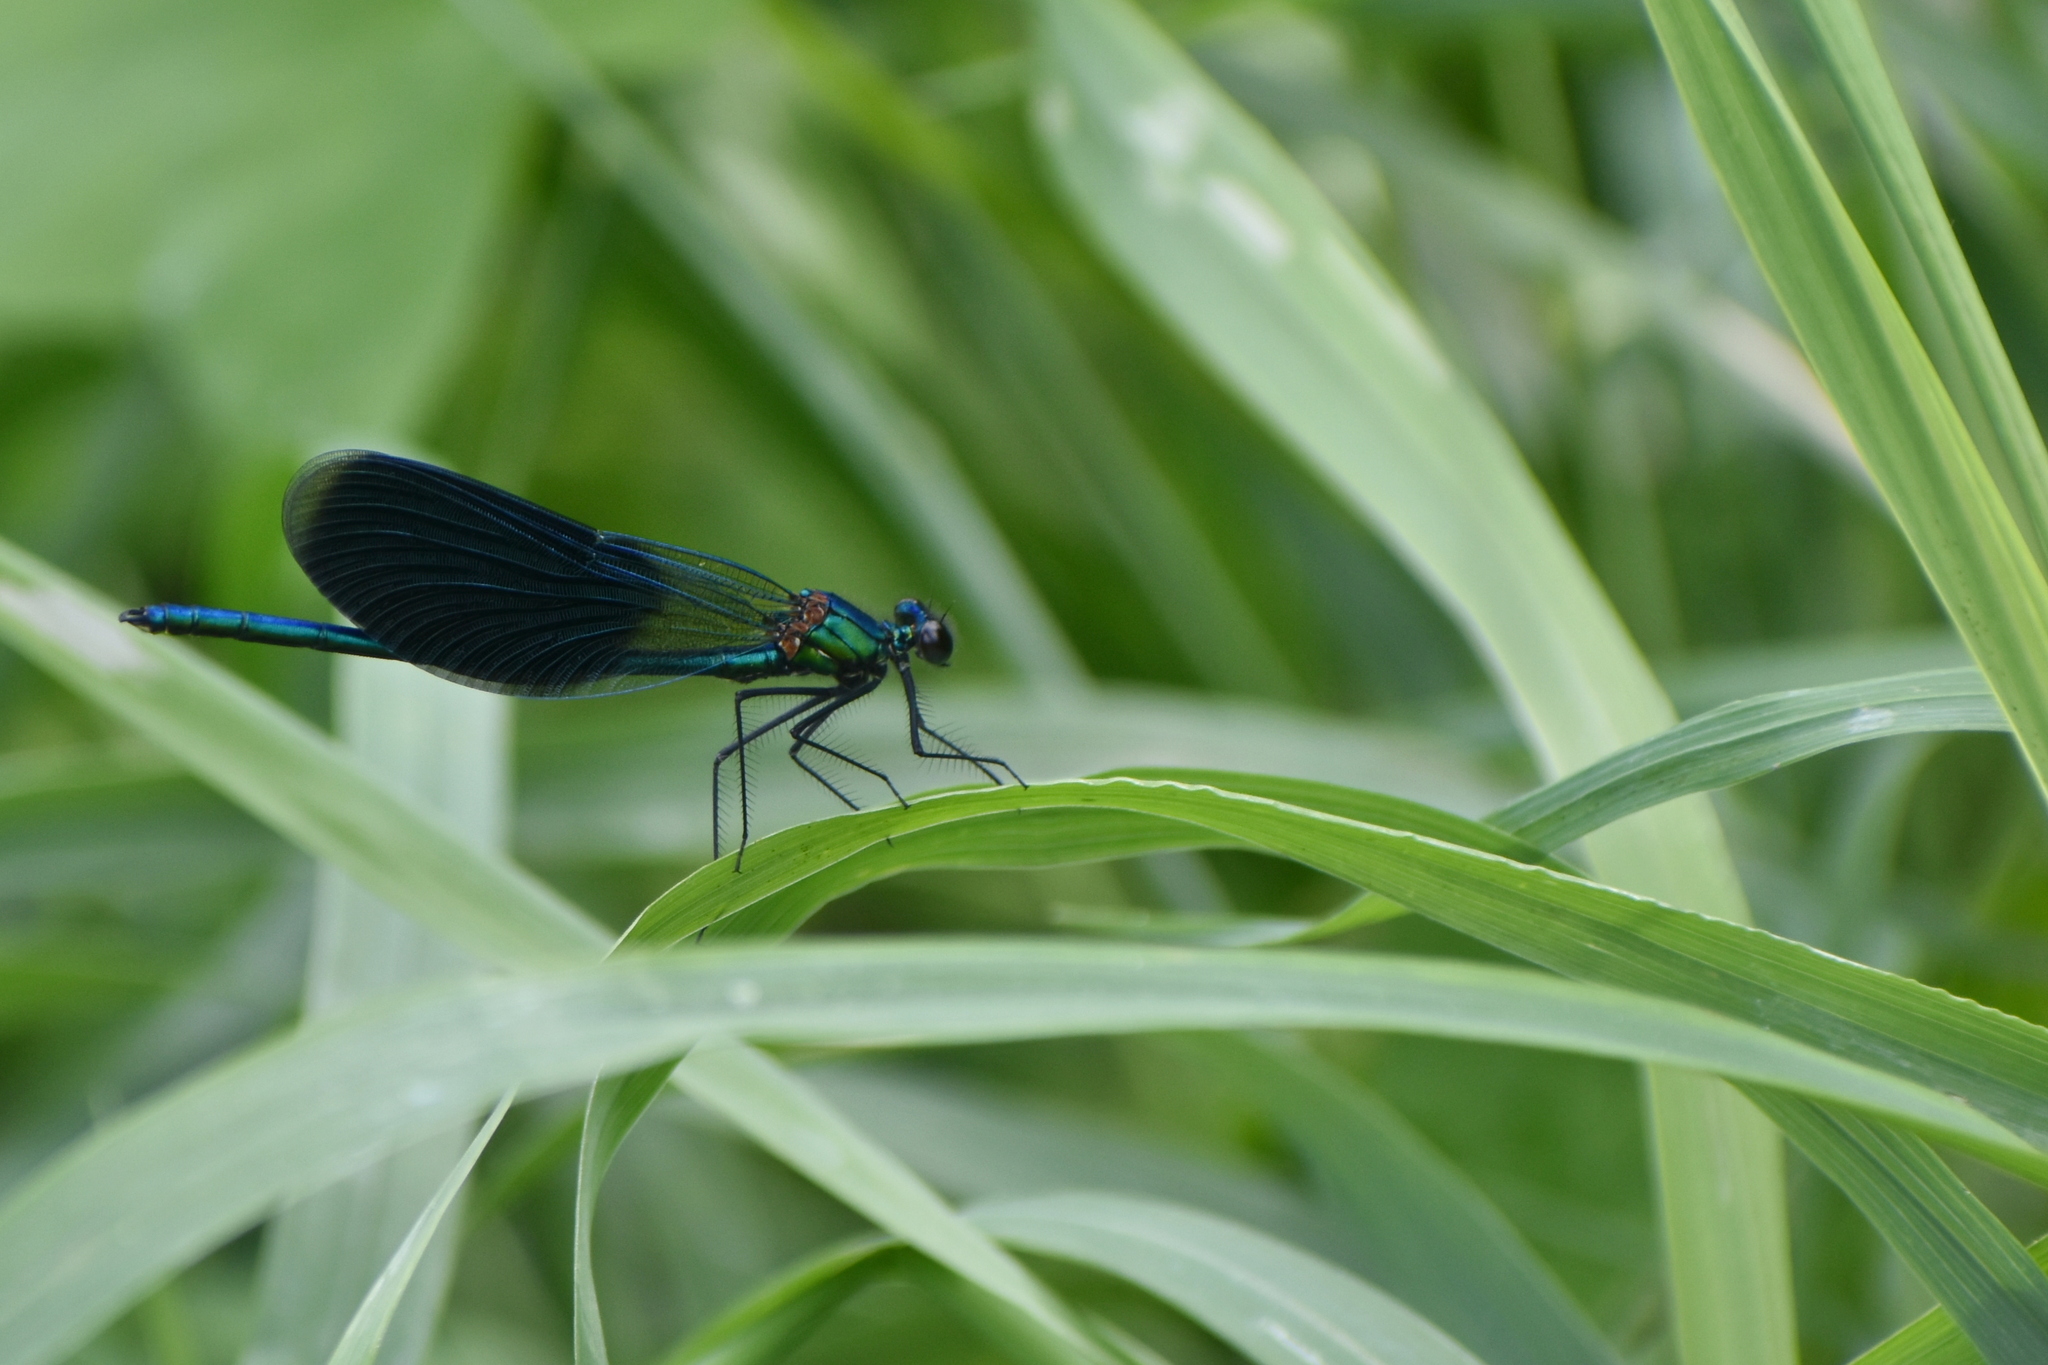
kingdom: Animalia
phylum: Arthropoda
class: Insecta
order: Odonata
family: Calopterygidae
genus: Calopteryx
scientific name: Calopteryx splendens
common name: Banded demoiselle
